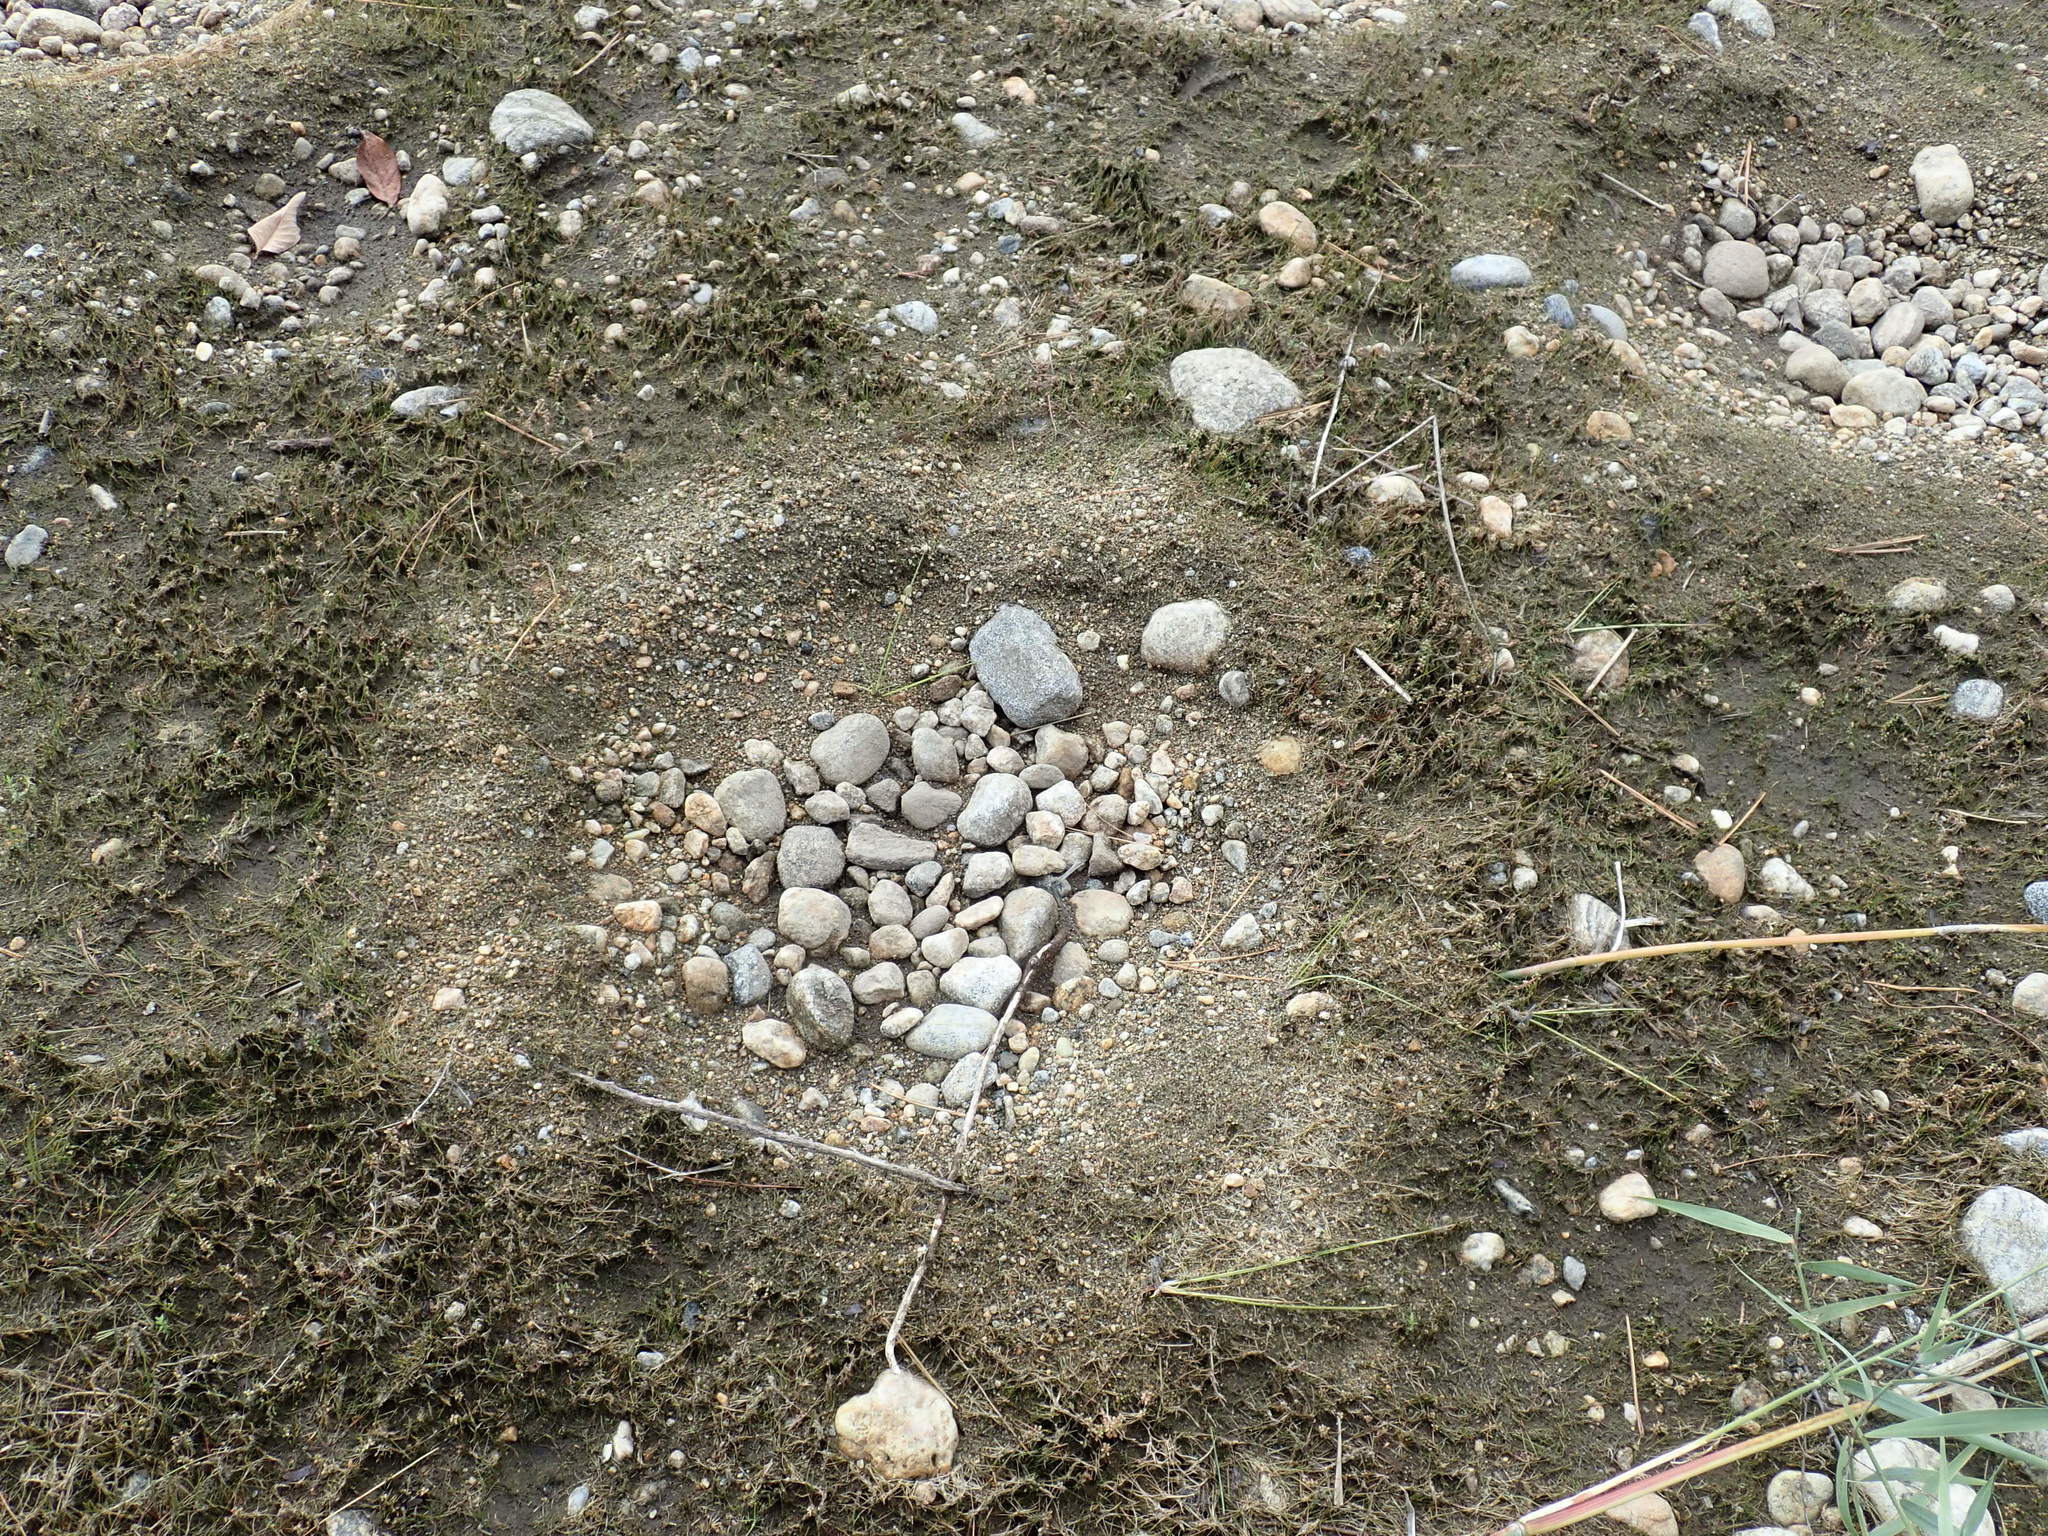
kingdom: Animalia
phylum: Chordata
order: Perciformes
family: Centrarchidae
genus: Lepomis
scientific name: Lepomis
